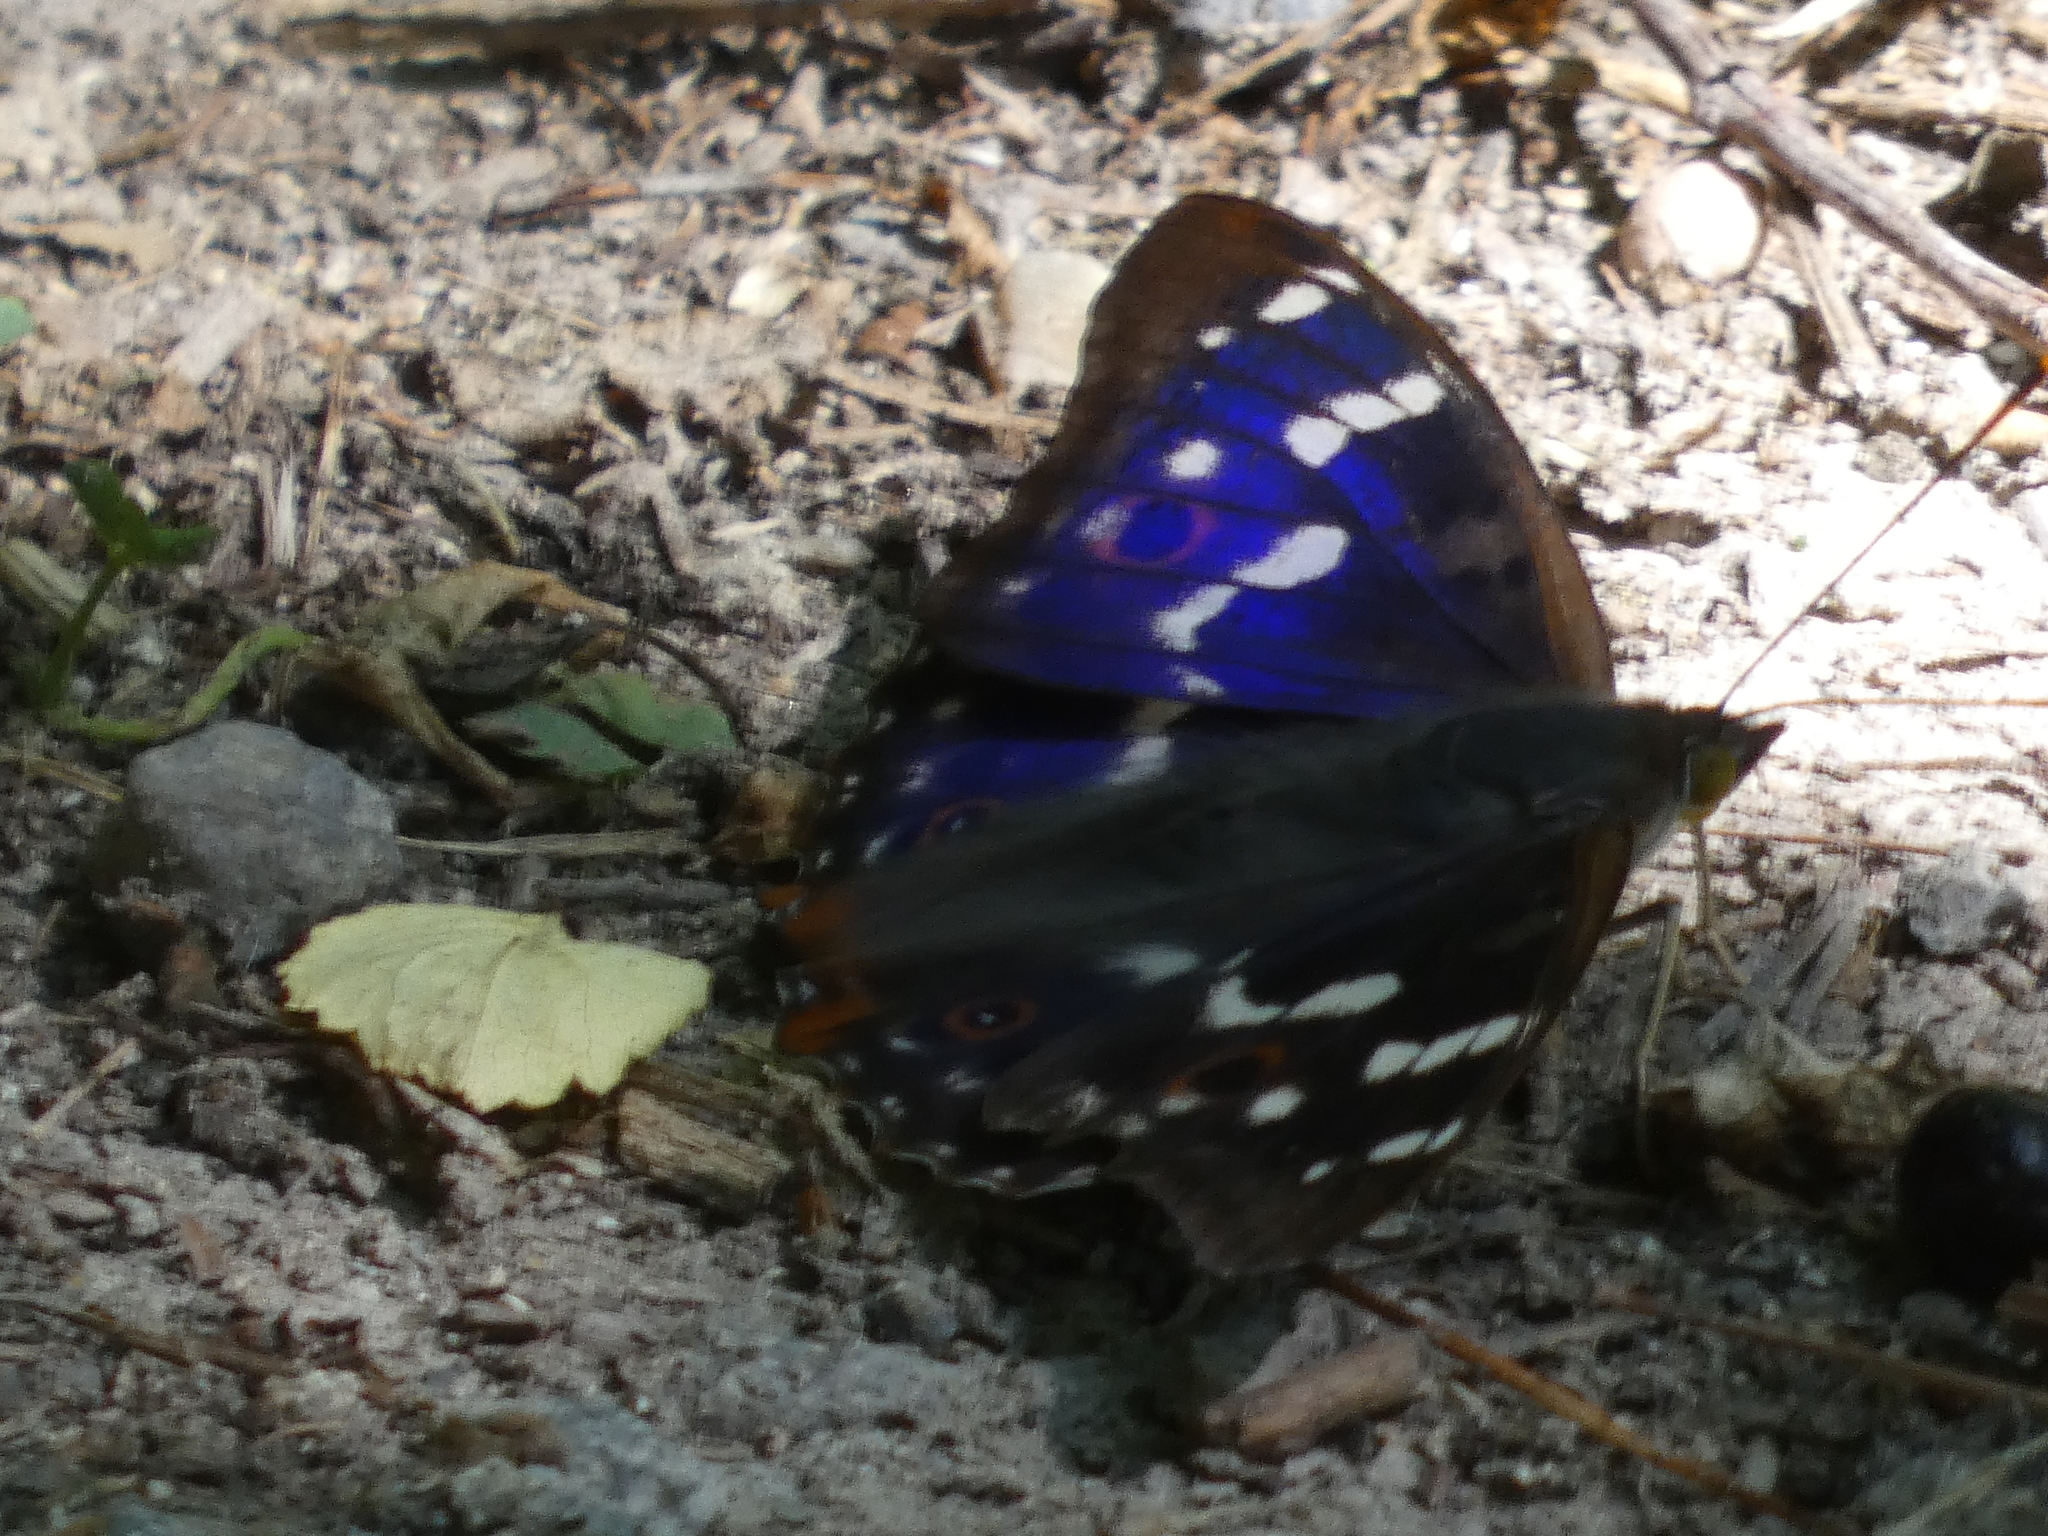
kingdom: Animalia
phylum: Arthropoda
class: Insecta
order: Lepidoptera
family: Nymphalidae
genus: Apatura
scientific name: Apatura ilia
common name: Lesser purple emperor
